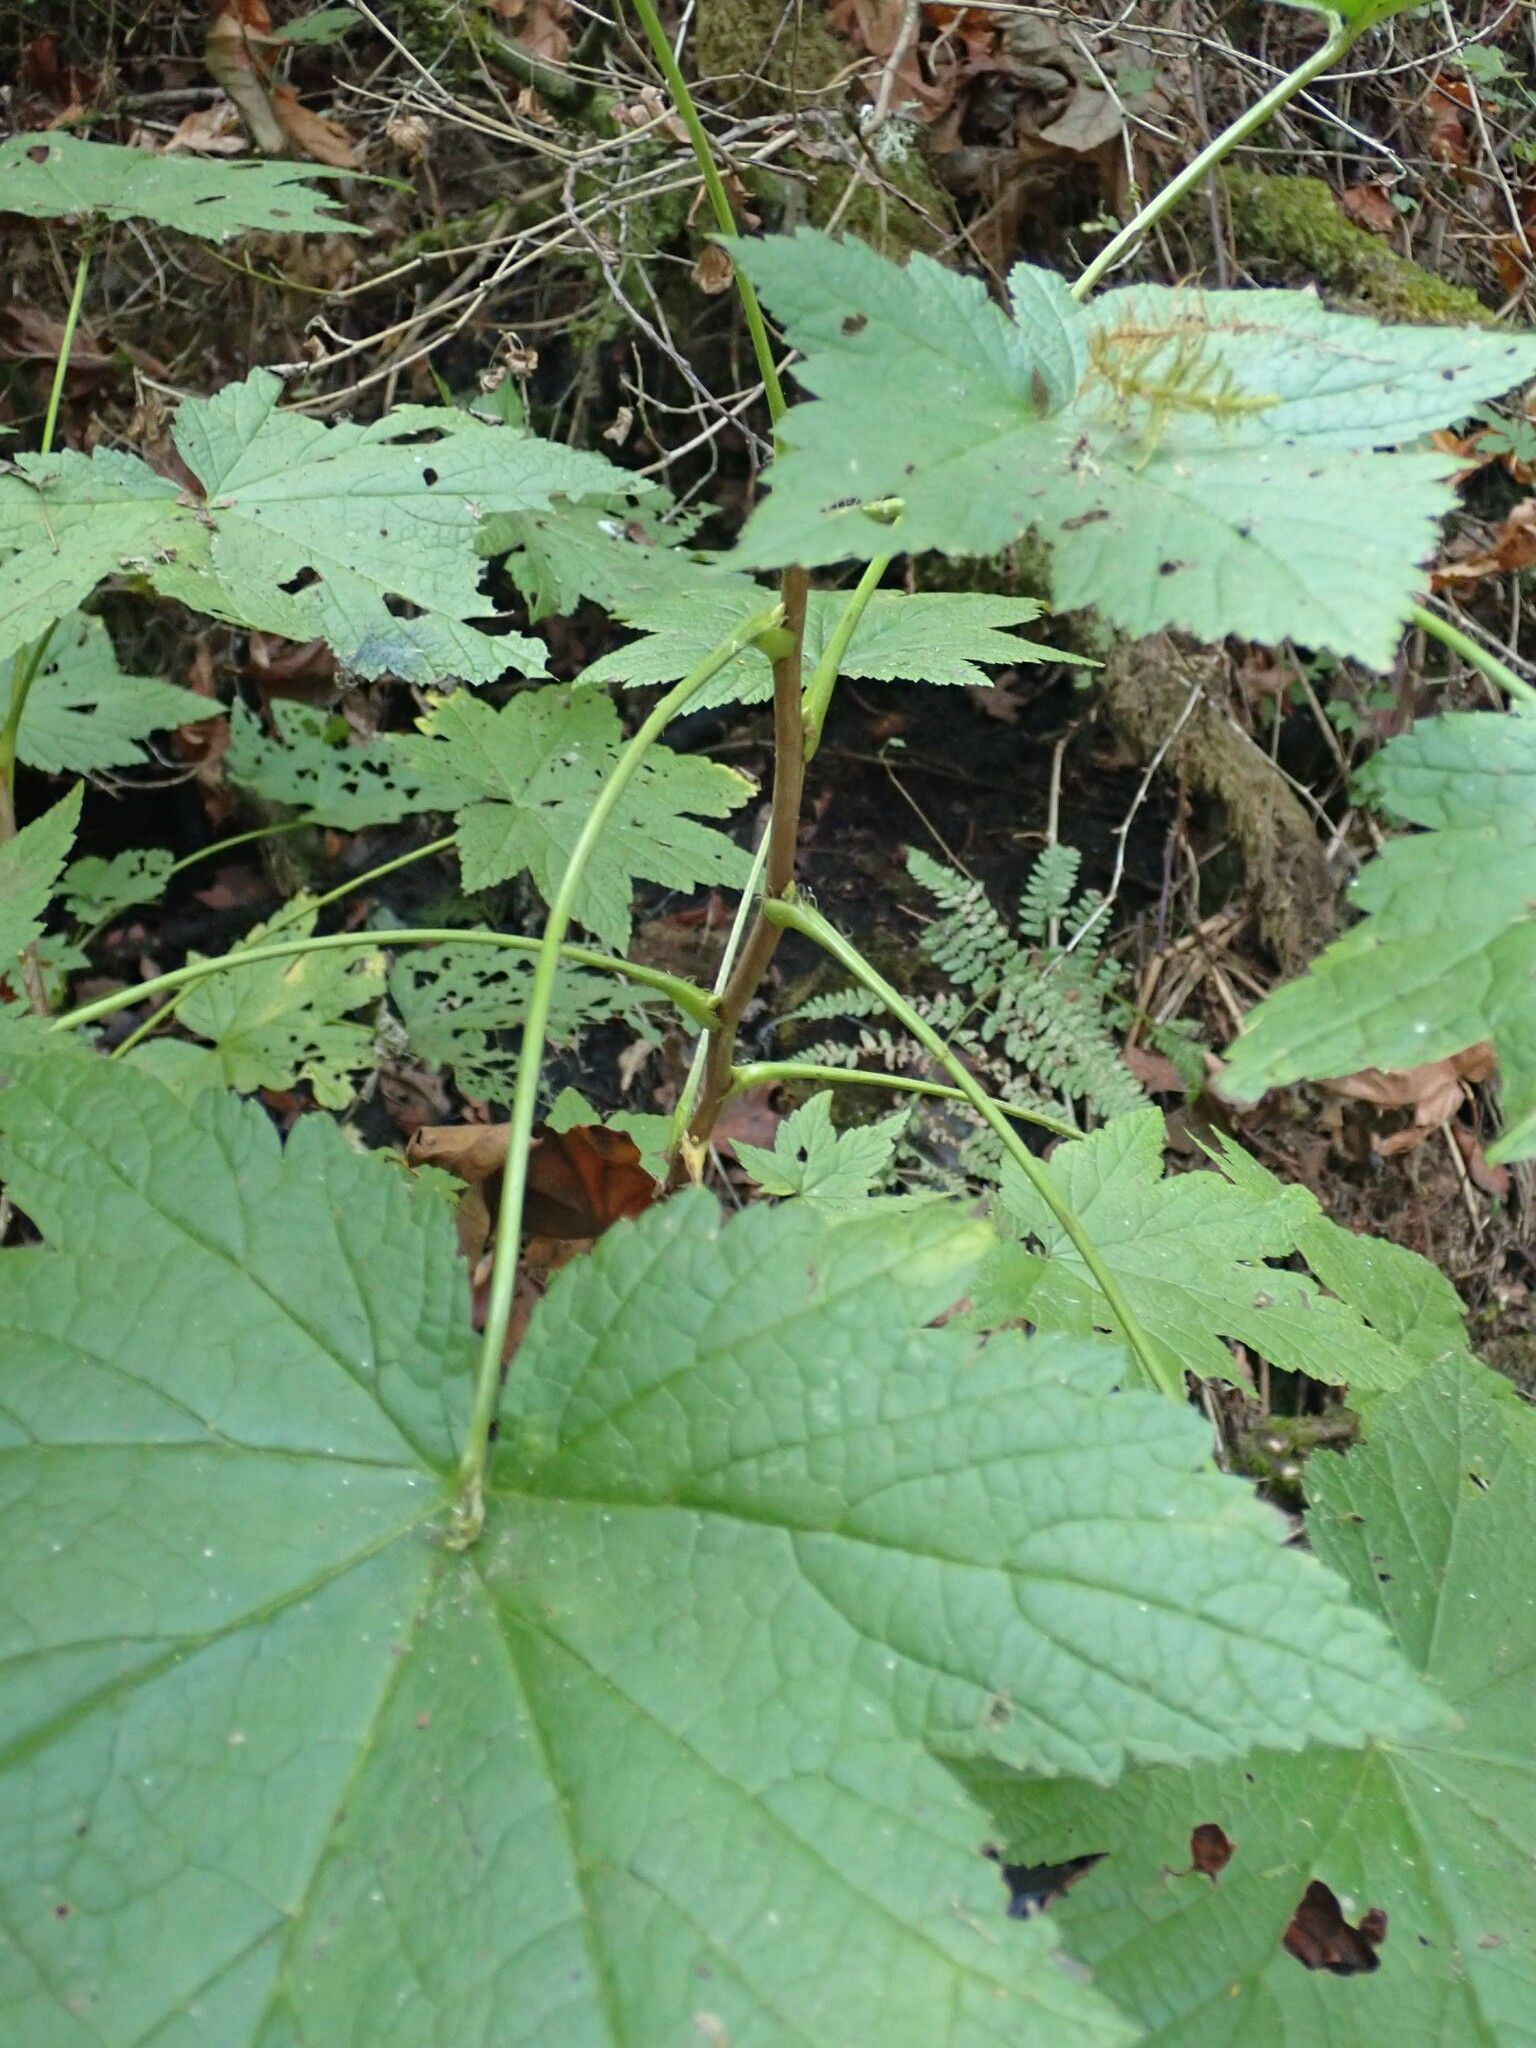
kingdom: Plantae
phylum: Tracheophyta
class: Magnoliopsida
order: Saxifragales
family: Grossulariaceae
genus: Ribes
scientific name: Ribes bracteosum
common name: California black currant
